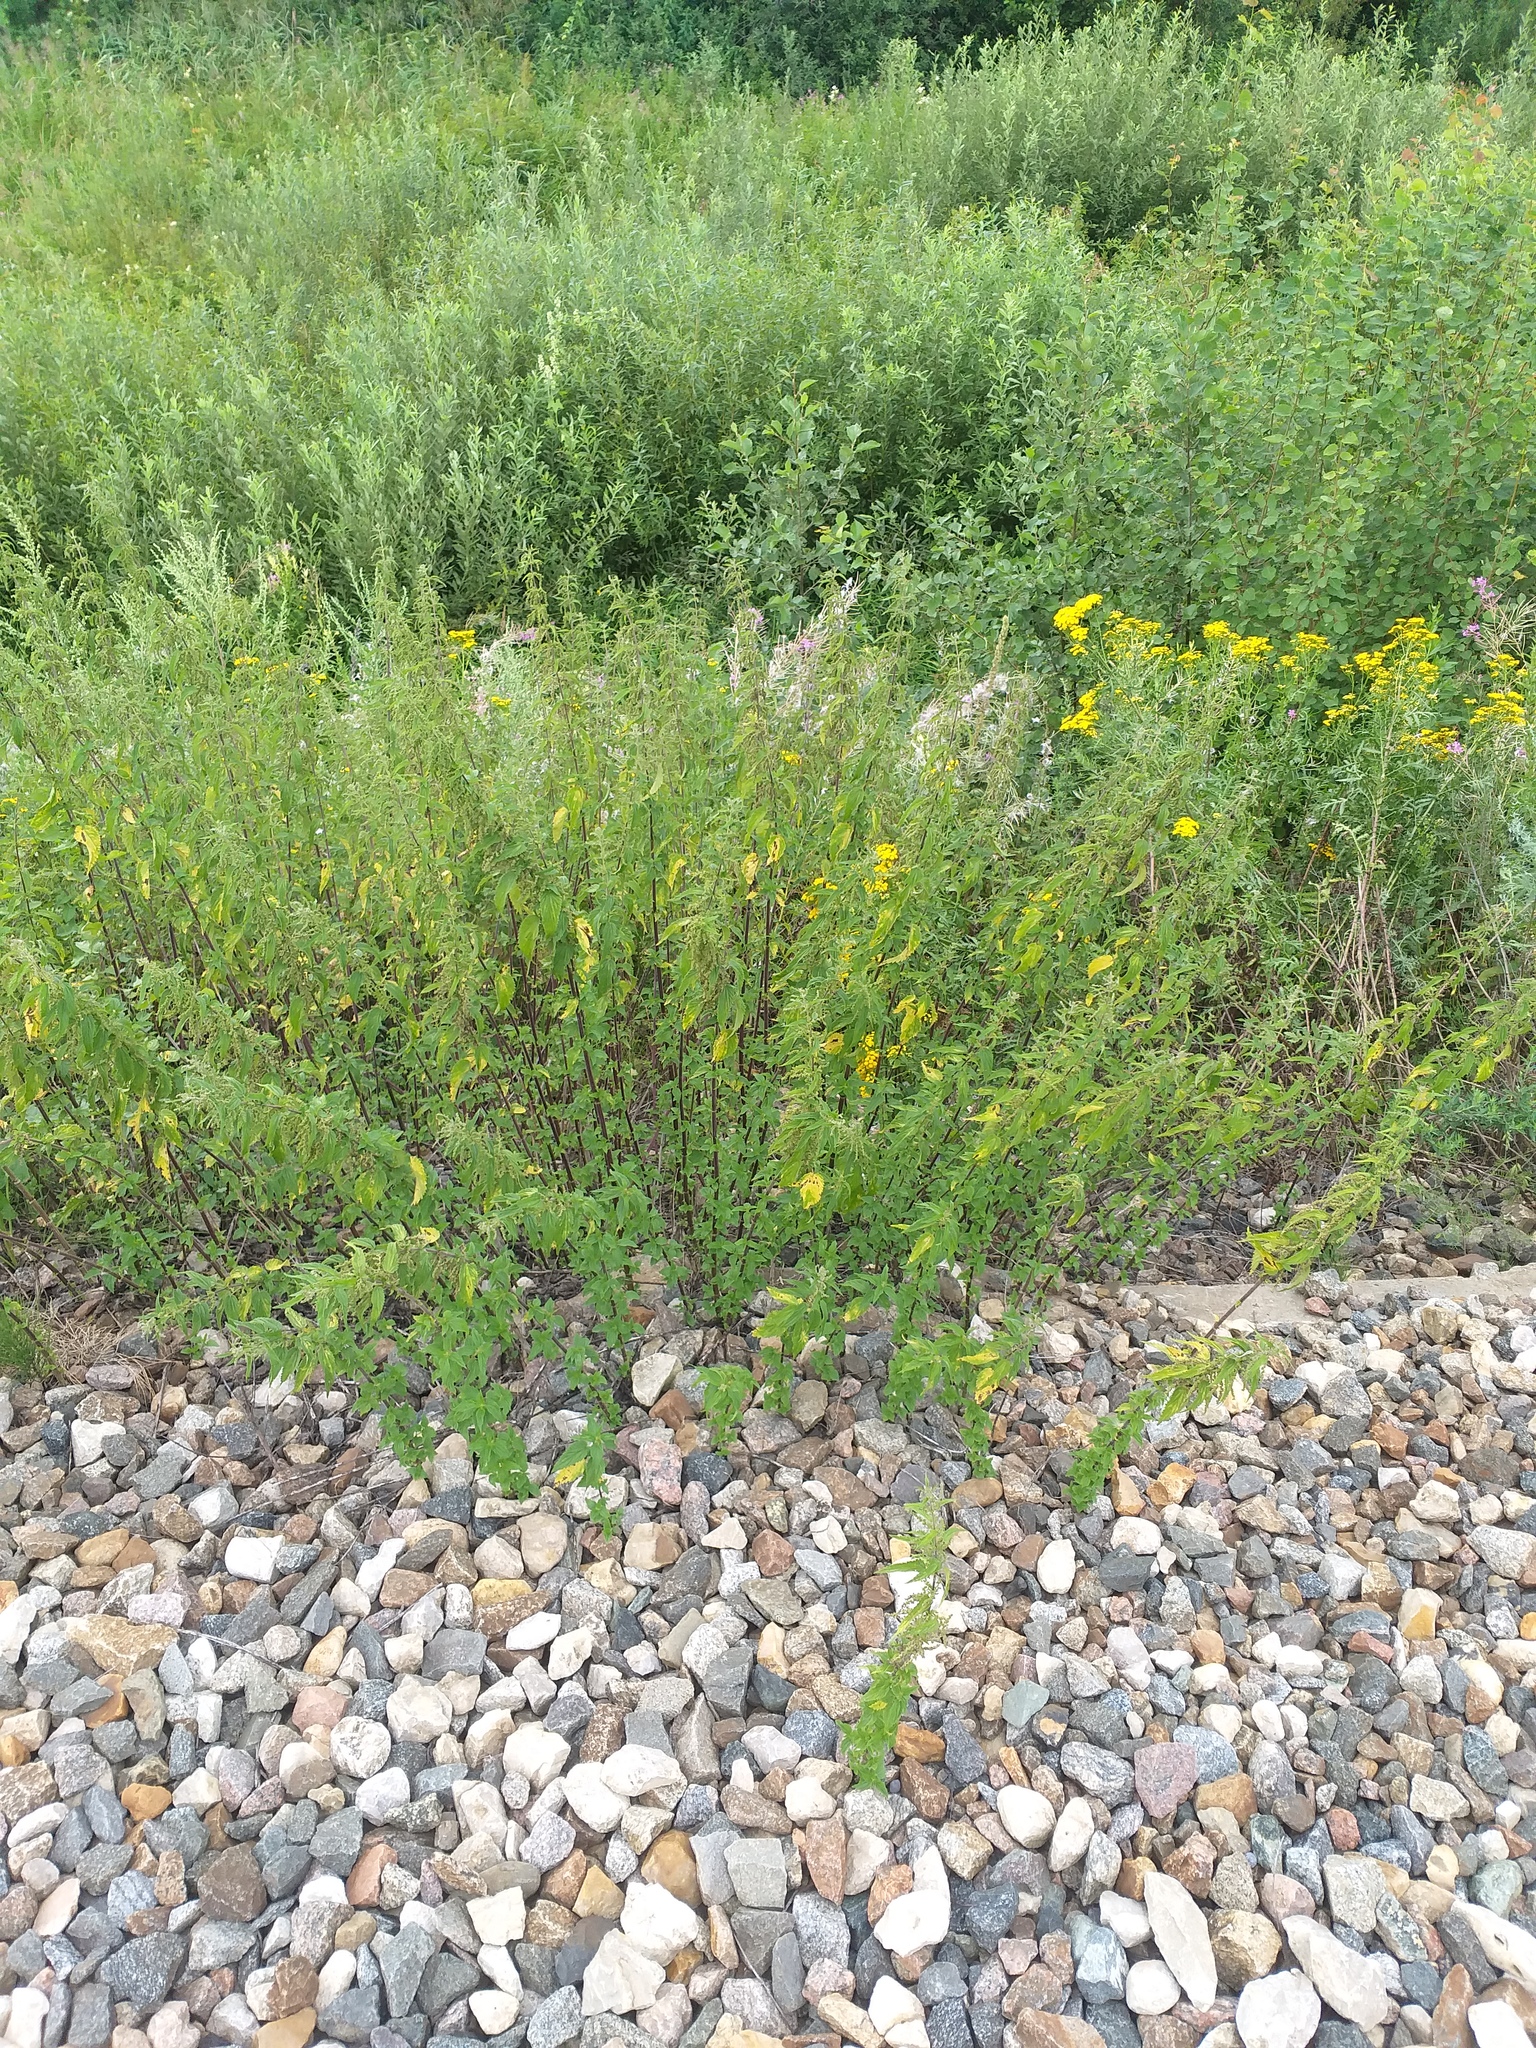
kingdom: Plantae
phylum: Tracheophyta
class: Magnoliopsida
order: Rosales
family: Urticaceae
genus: Urtica
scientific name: Urtica dioica
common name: Common nettle
